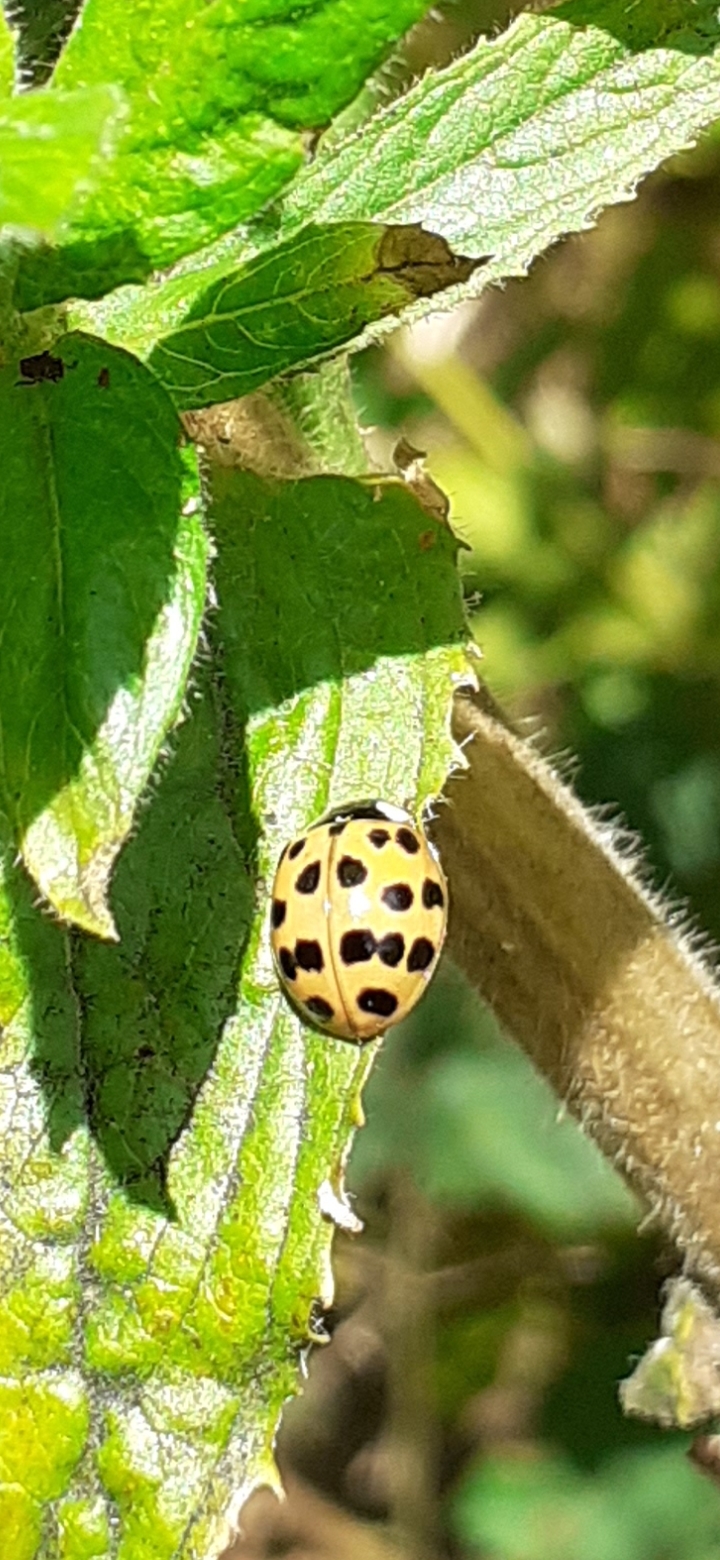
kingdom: Animalia
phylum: Arthropoda
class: Insecta
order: Coleoptera
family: Coccinellidae
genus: Harmonia
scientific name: Harmonia axyridis
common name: Harlequin ladybird
